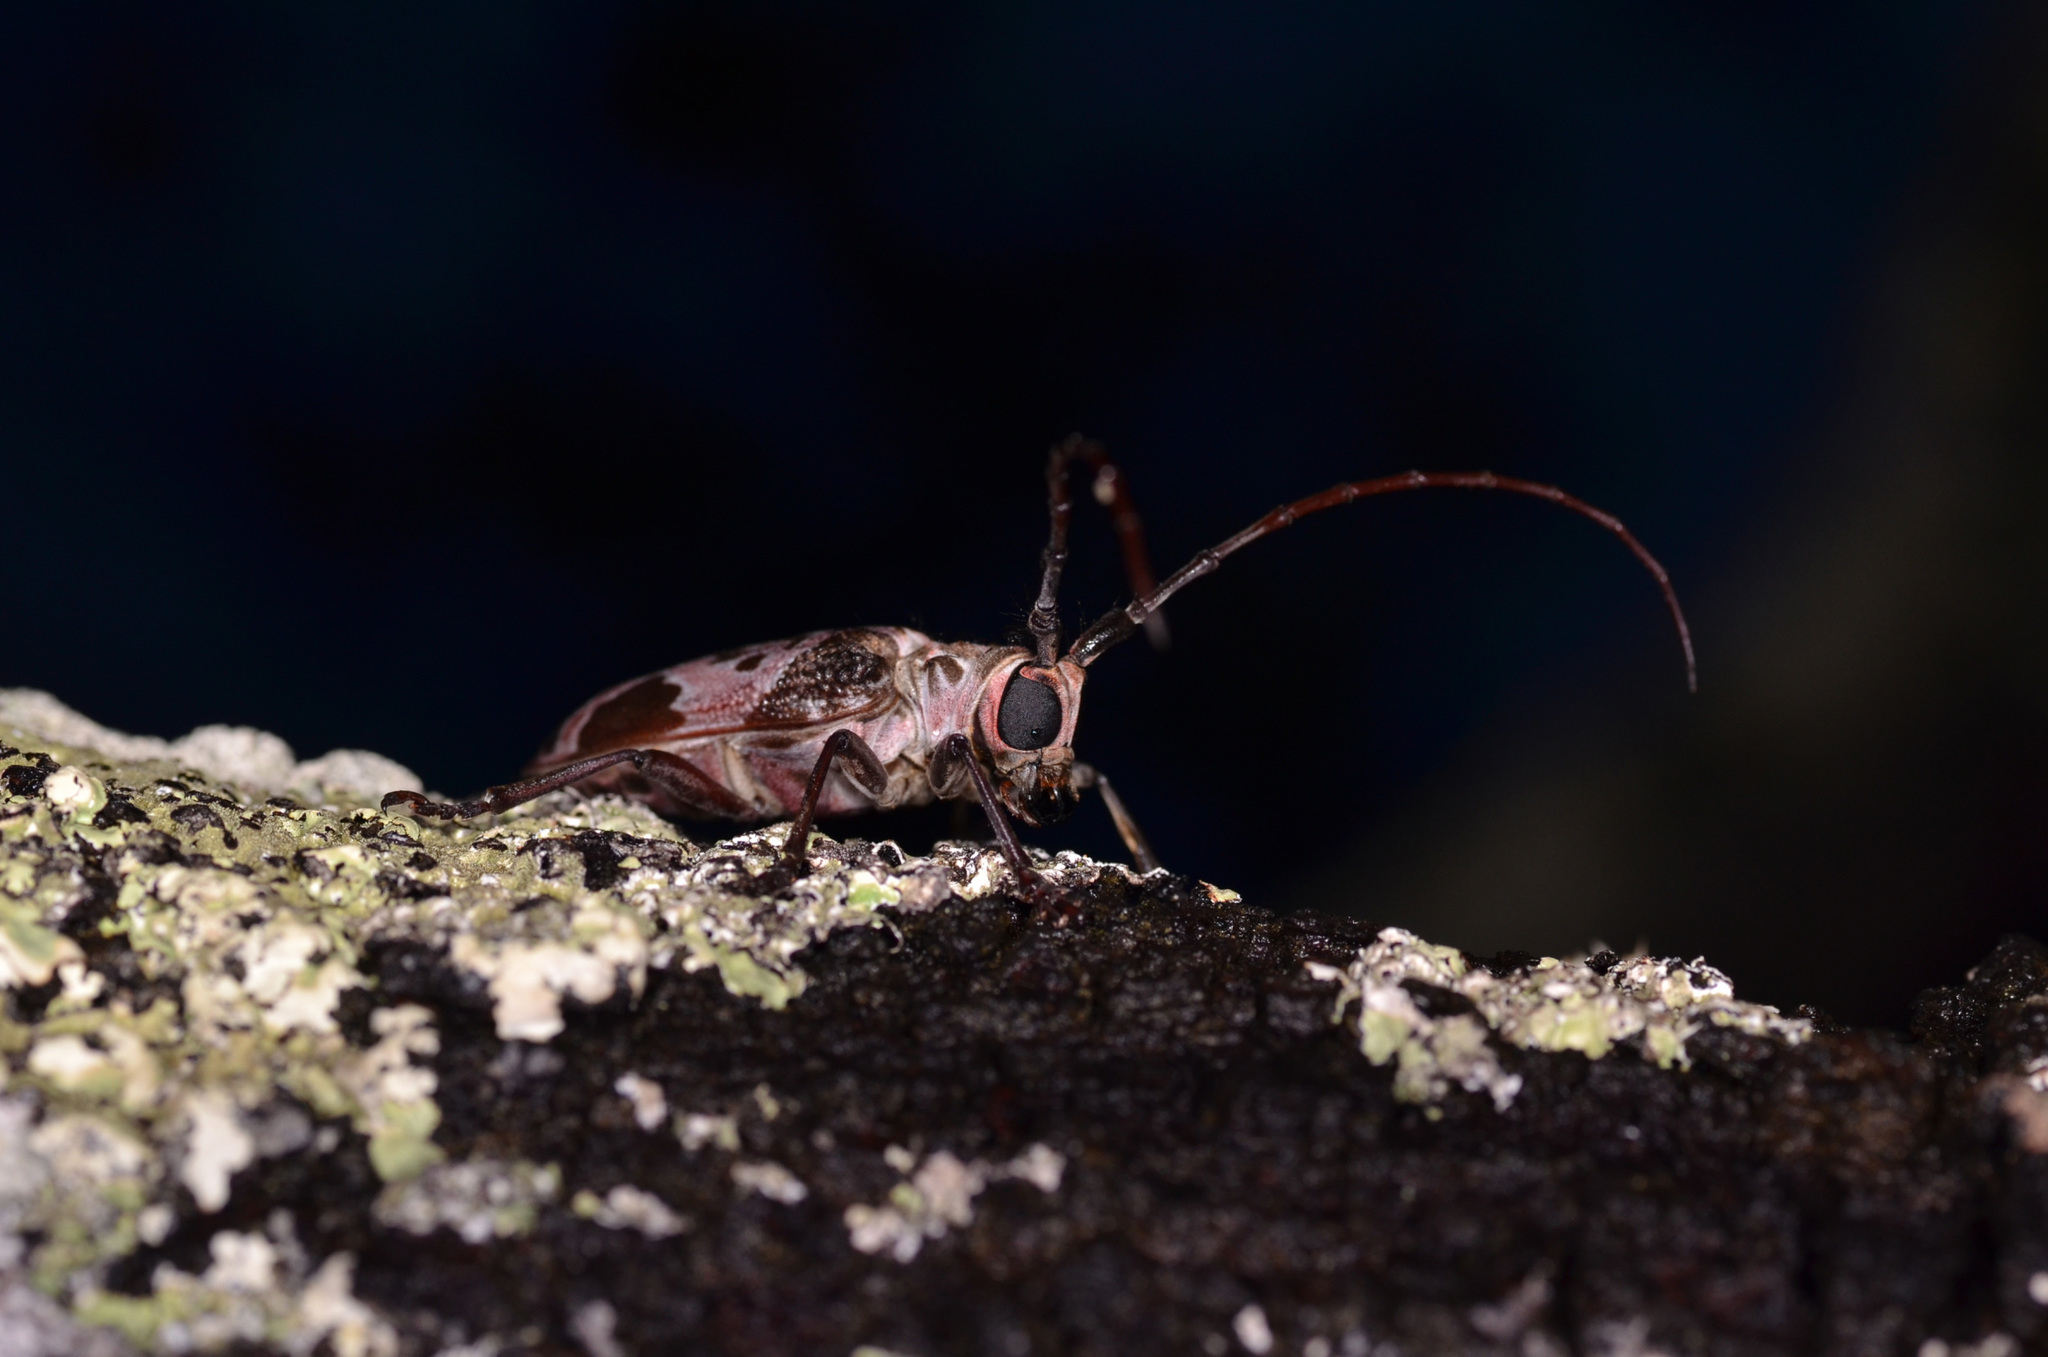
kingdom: Animalia
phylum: Arthropoda
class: Insecta
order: Coleoptera
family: Cerambycidae
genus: Eurysops
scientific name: Eurysops burgeoni
